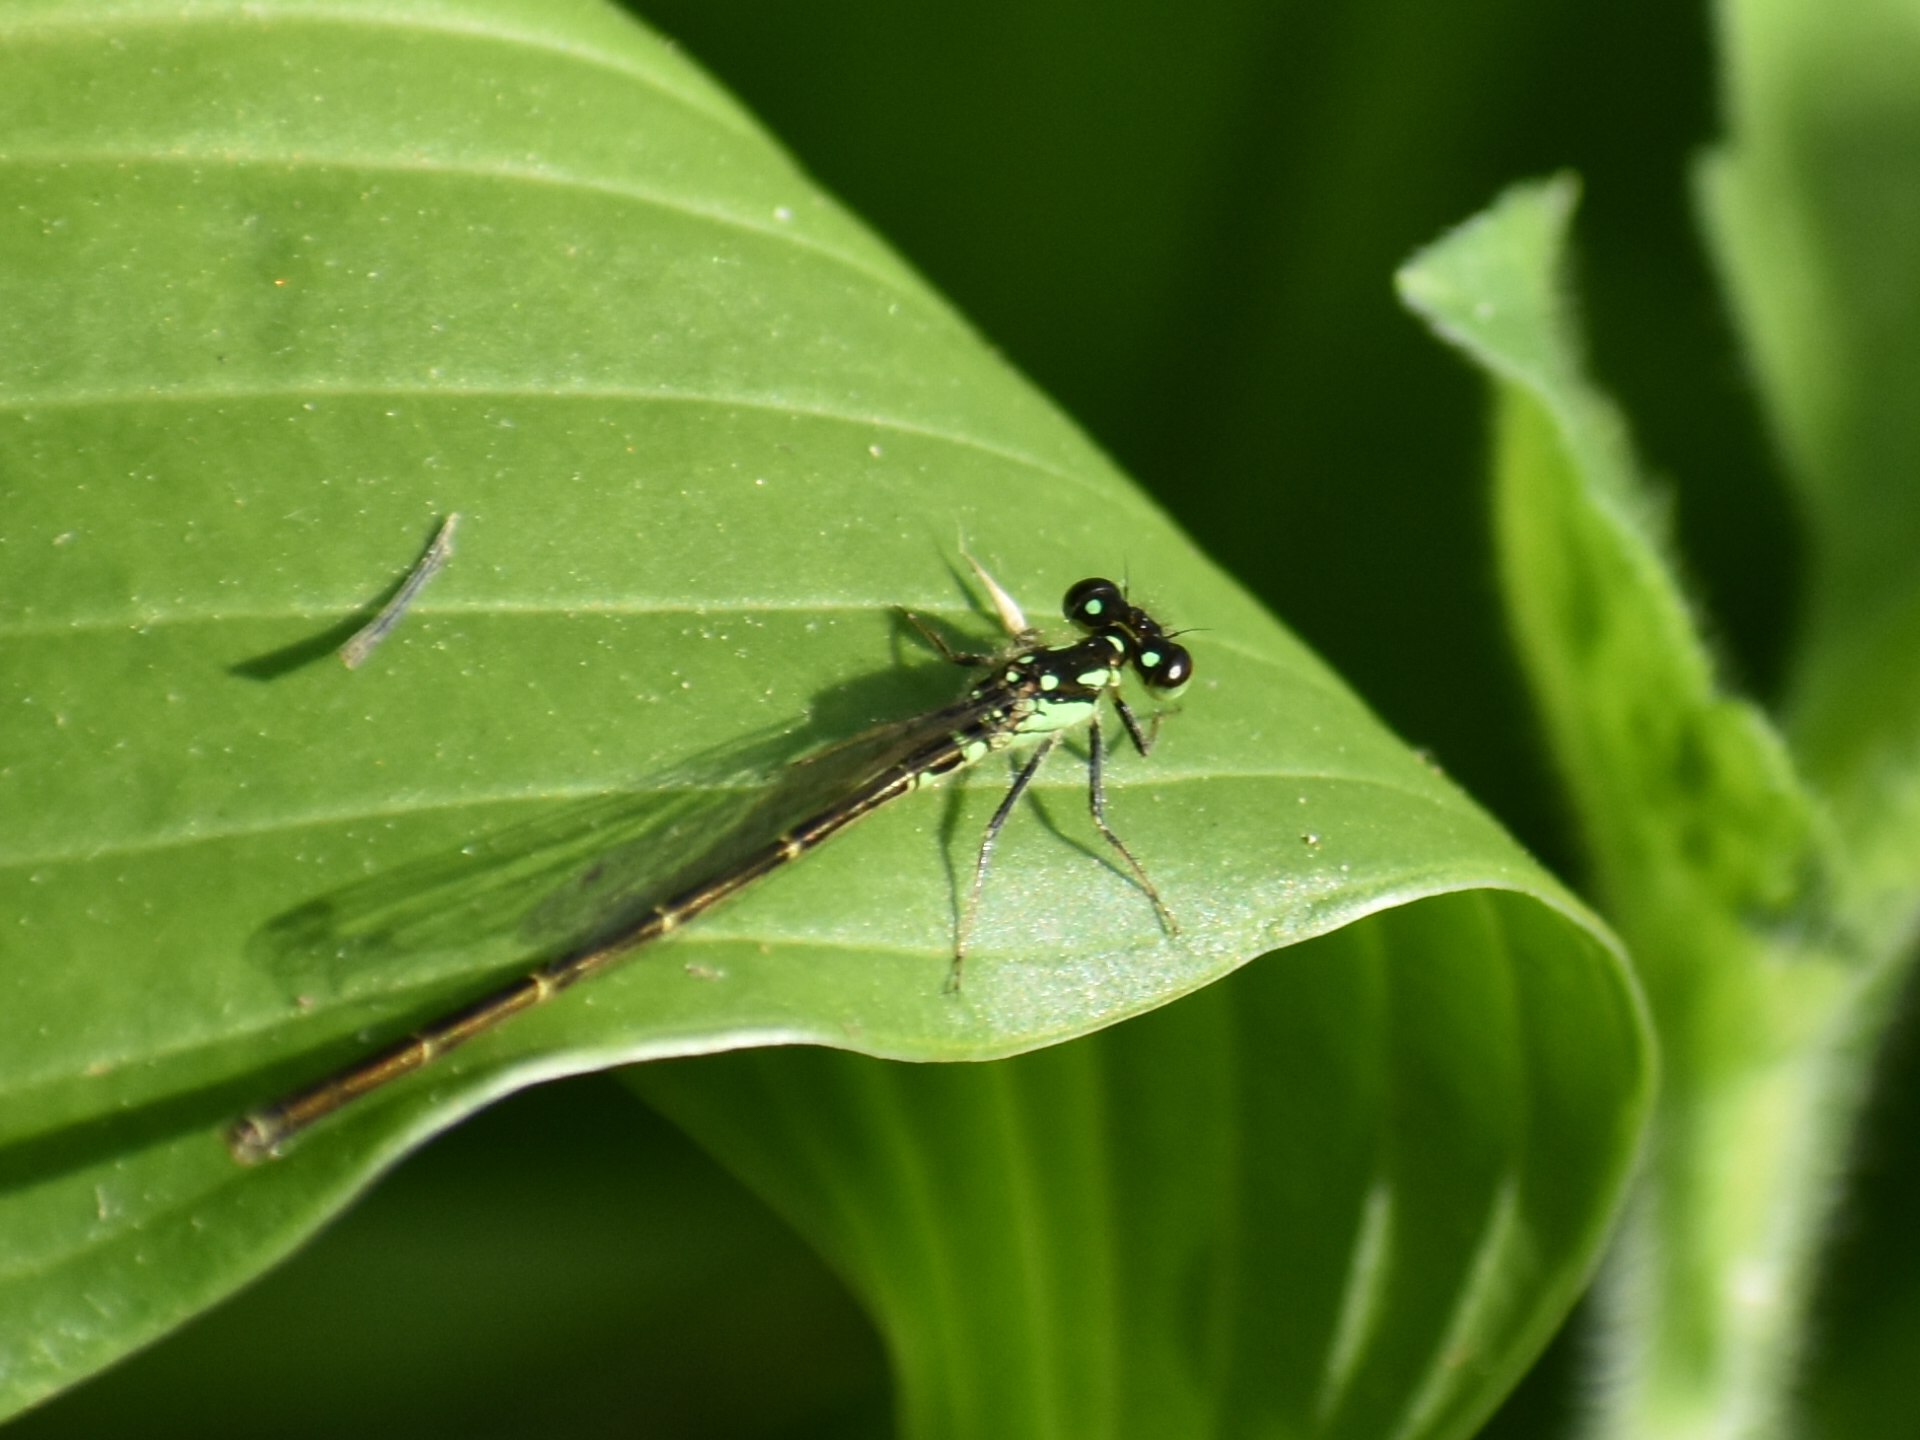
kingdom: Animalia
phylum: Arthropoda
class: Insecta
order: Odonata
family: Coenagrionidae
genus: Ischnura
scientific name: Ischnura posita
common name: Fragile forktail
